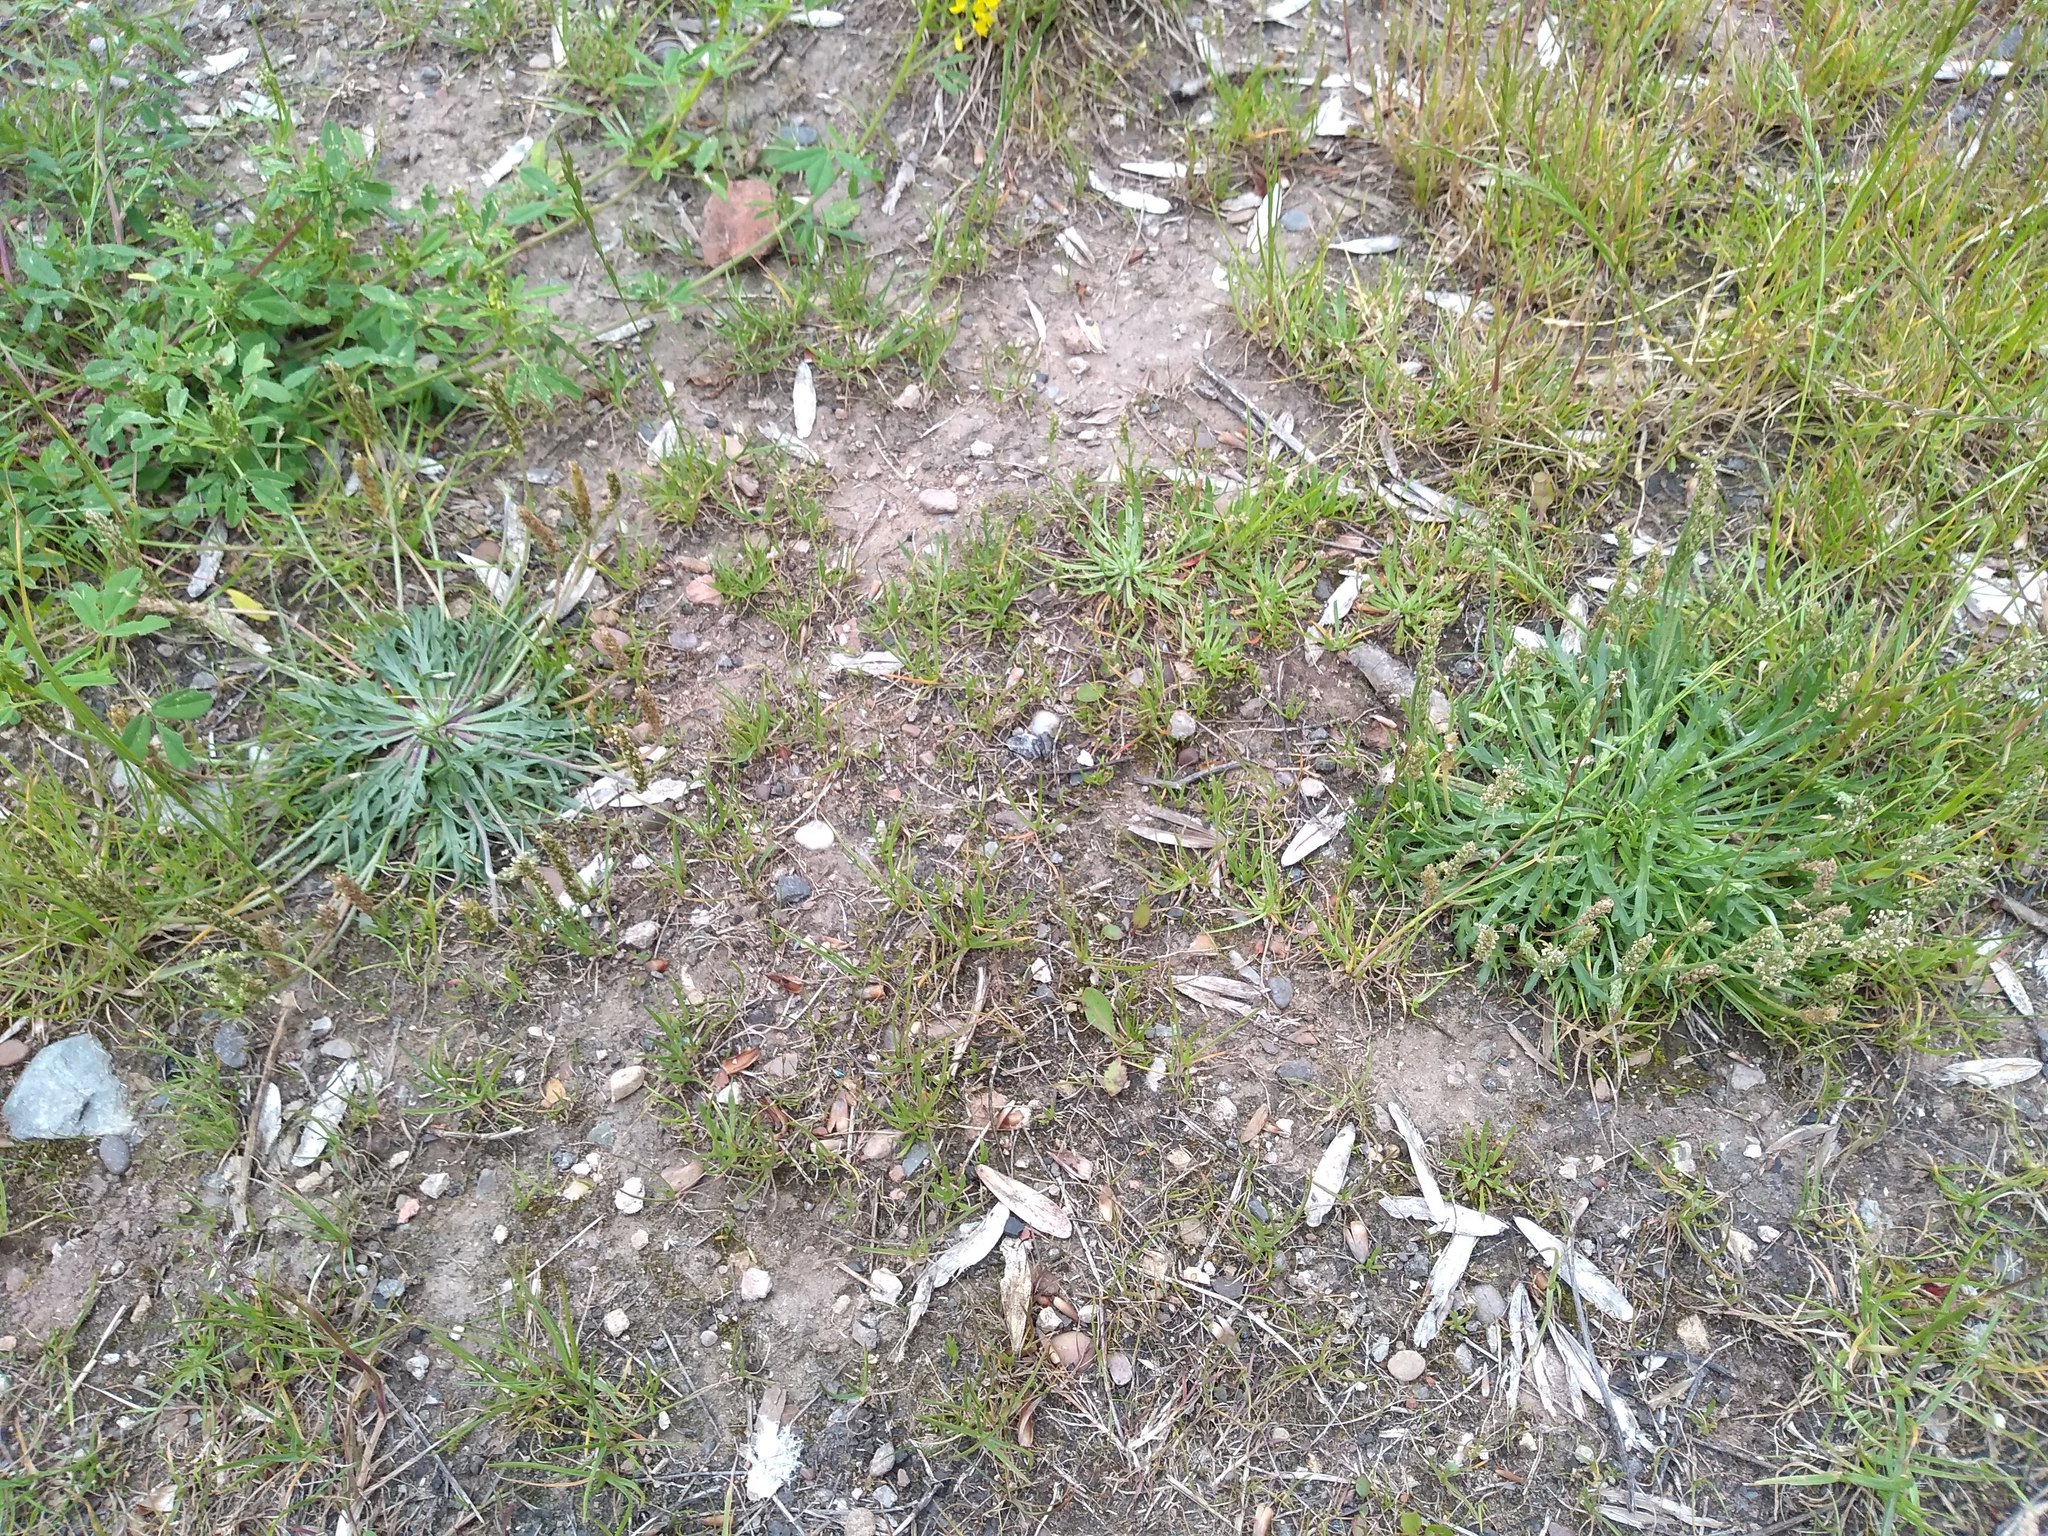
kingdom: Plantae
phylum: Tracheophyta
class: Magnoliopsida
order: Lamiales
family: Plantaginaceae
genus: Plantago
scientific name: Plantago coronopus
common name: Buck's-horn plantain
